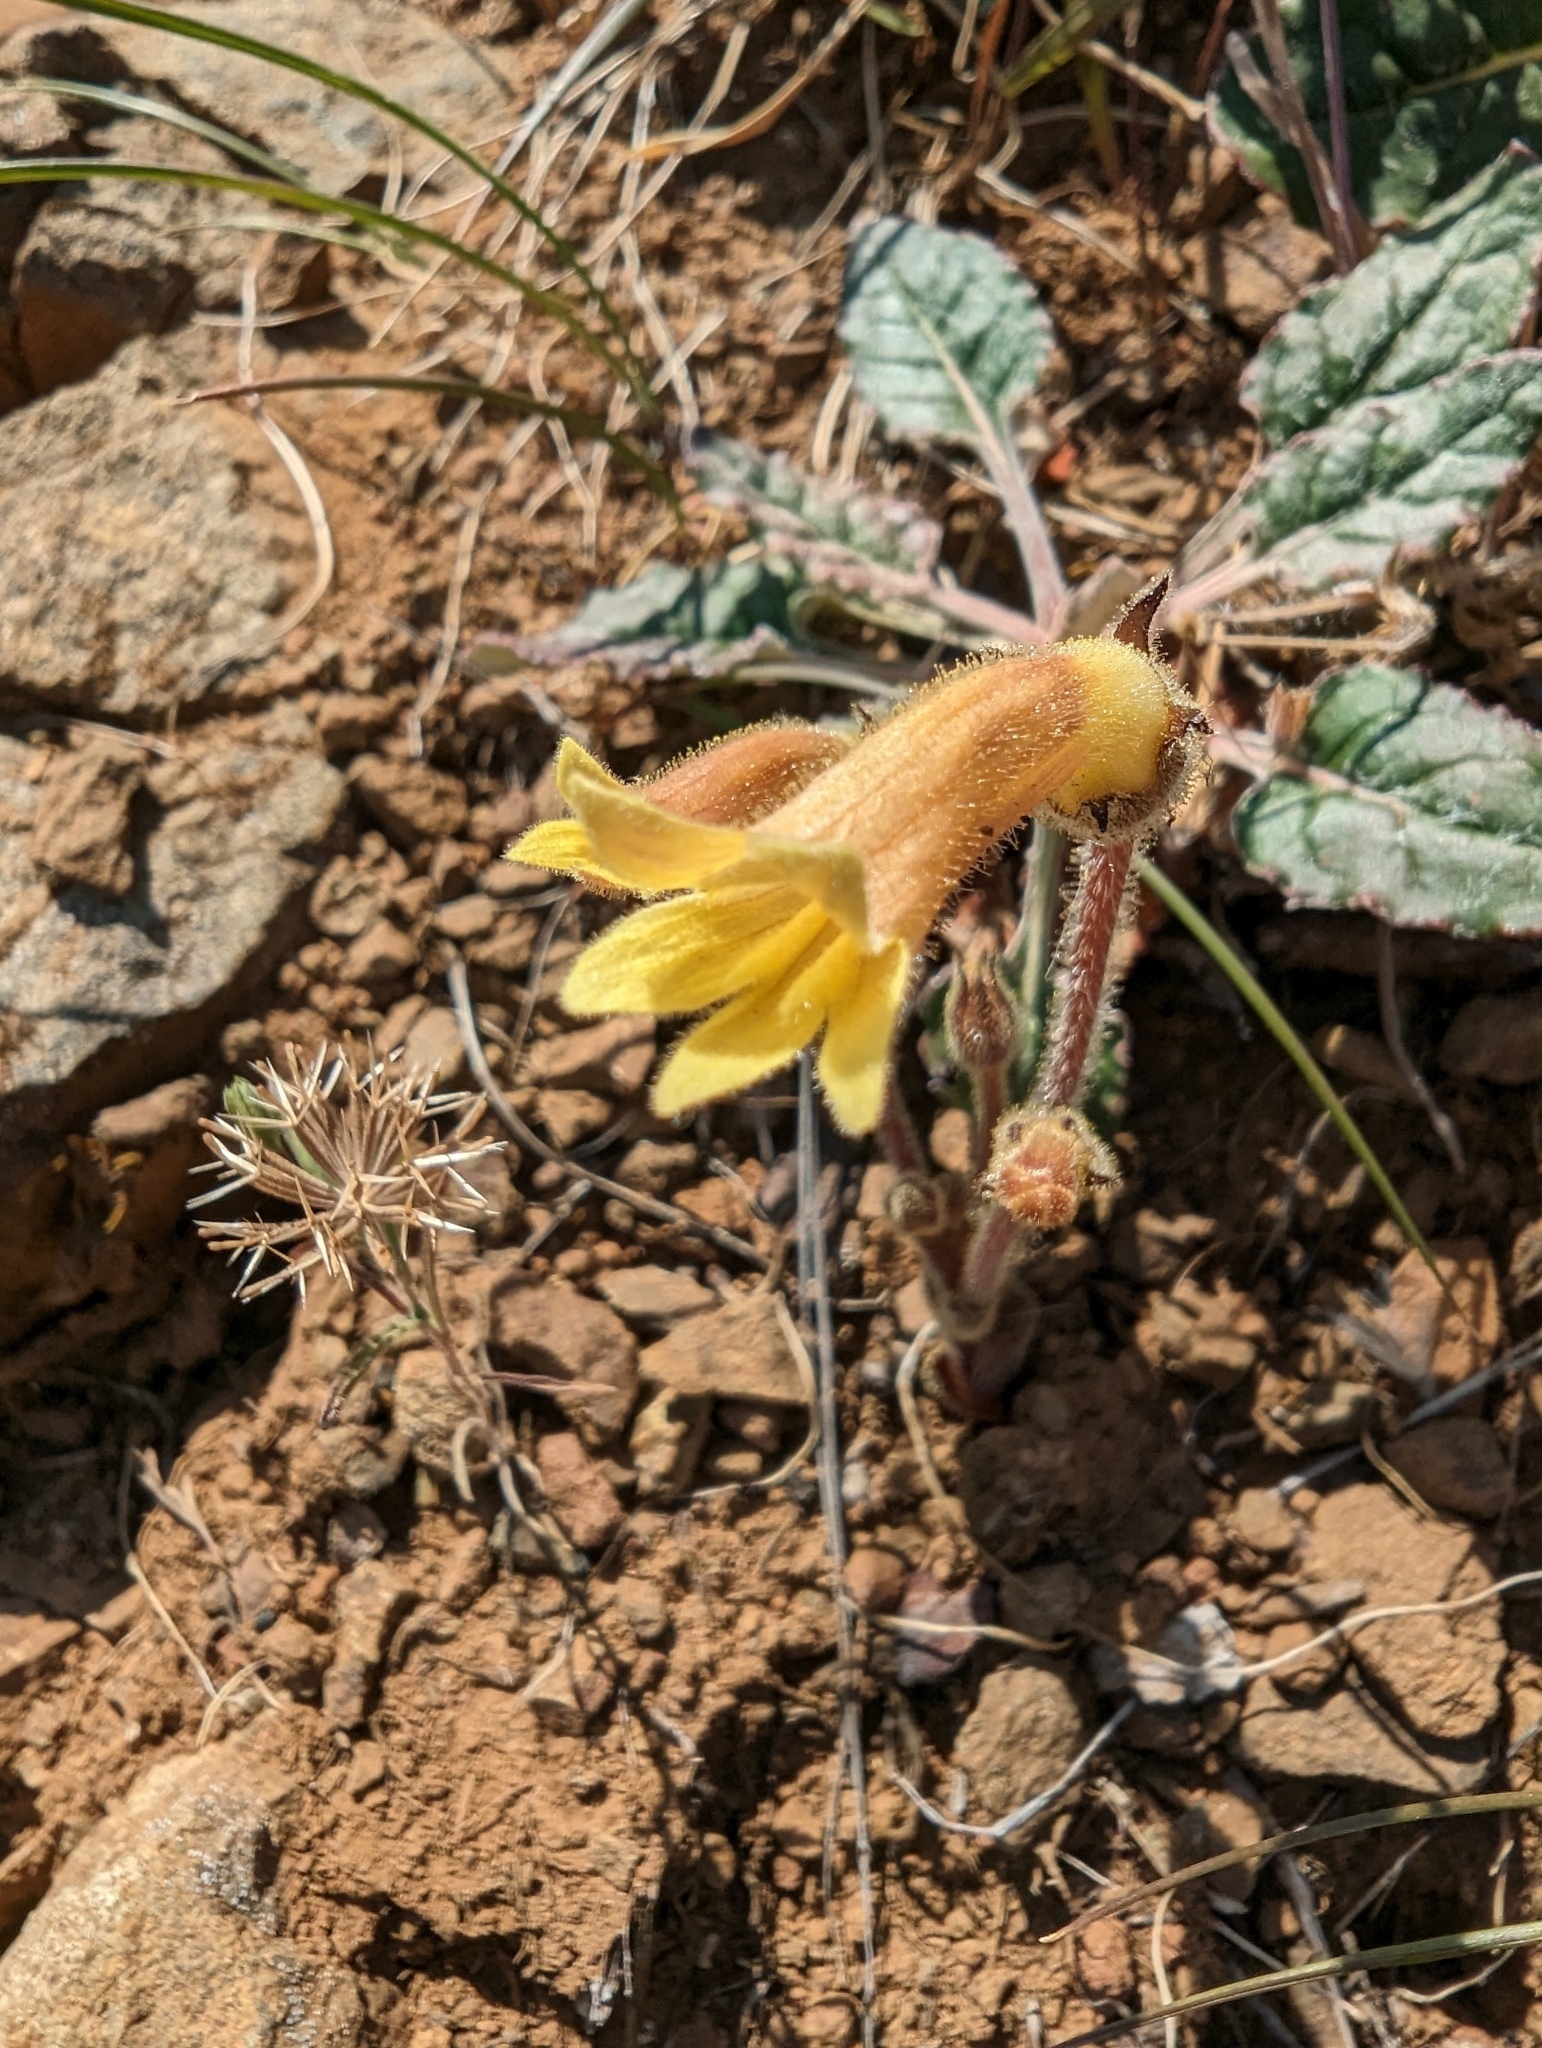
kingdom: Plantae
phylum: Tracheophyta
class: Magnoliopsida
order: Lamiales
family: Orobanchaceae
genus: Aphyllon
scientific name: Aphyllon franciscanum
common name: San francisco broomrape
